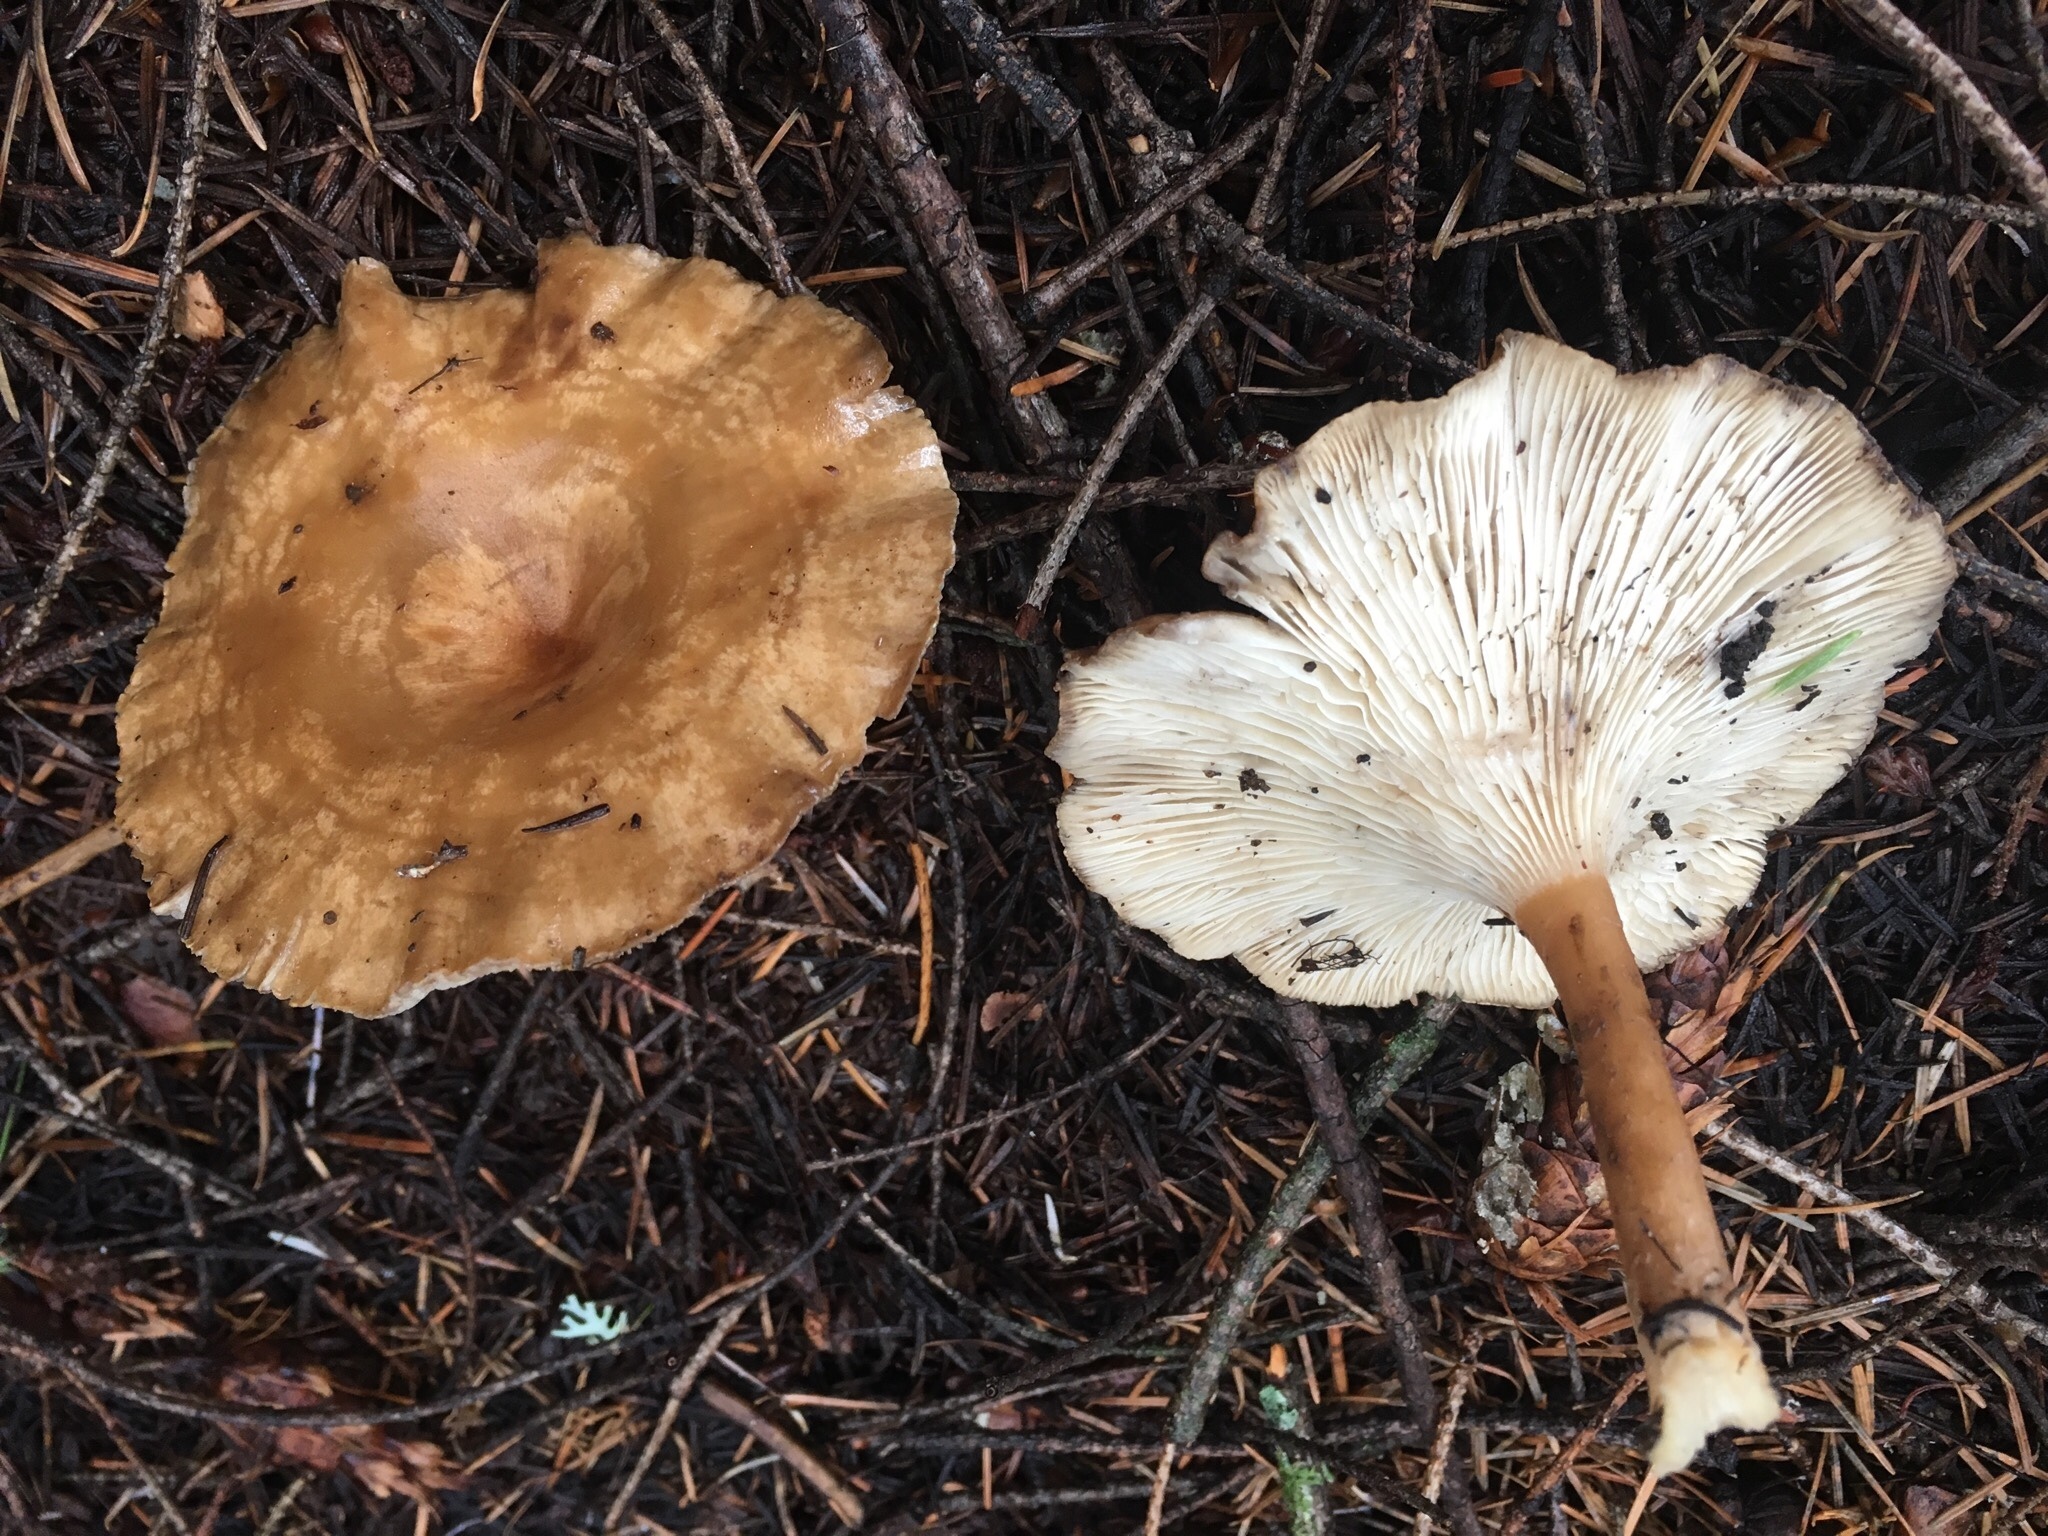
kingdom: Fungi
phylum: Basidiomycota
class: Agaricomycetes
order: Agaricales
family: Tricholomataceae
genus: Infundibulicybe
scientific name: Infundibulicybe squamulosa
